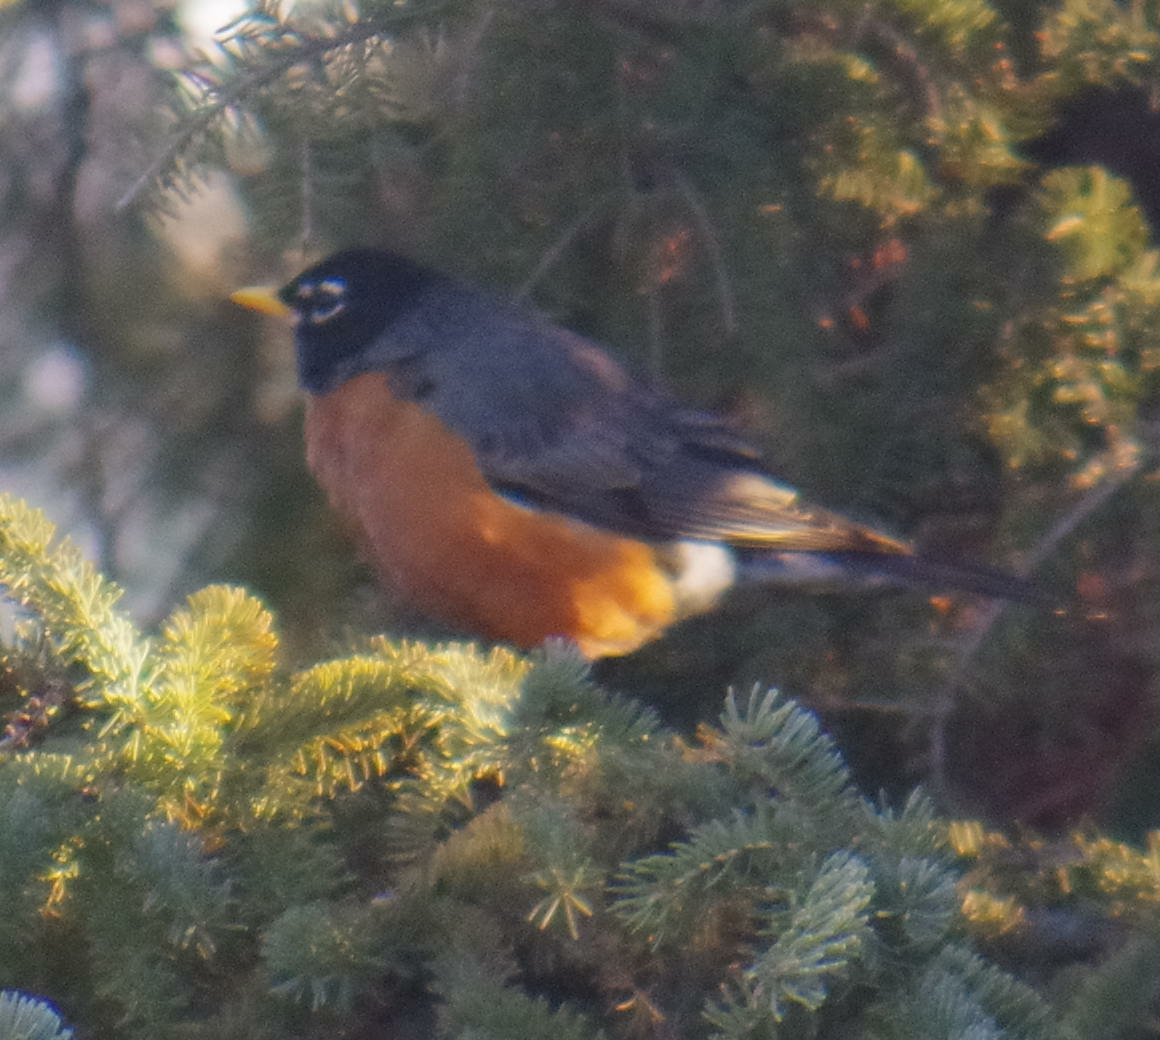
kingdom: Animalia
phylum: Chordata
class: Aves
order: Passeriformes
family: Turdidae
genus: Turdus
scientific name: Turdus migratorius
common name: American robin
